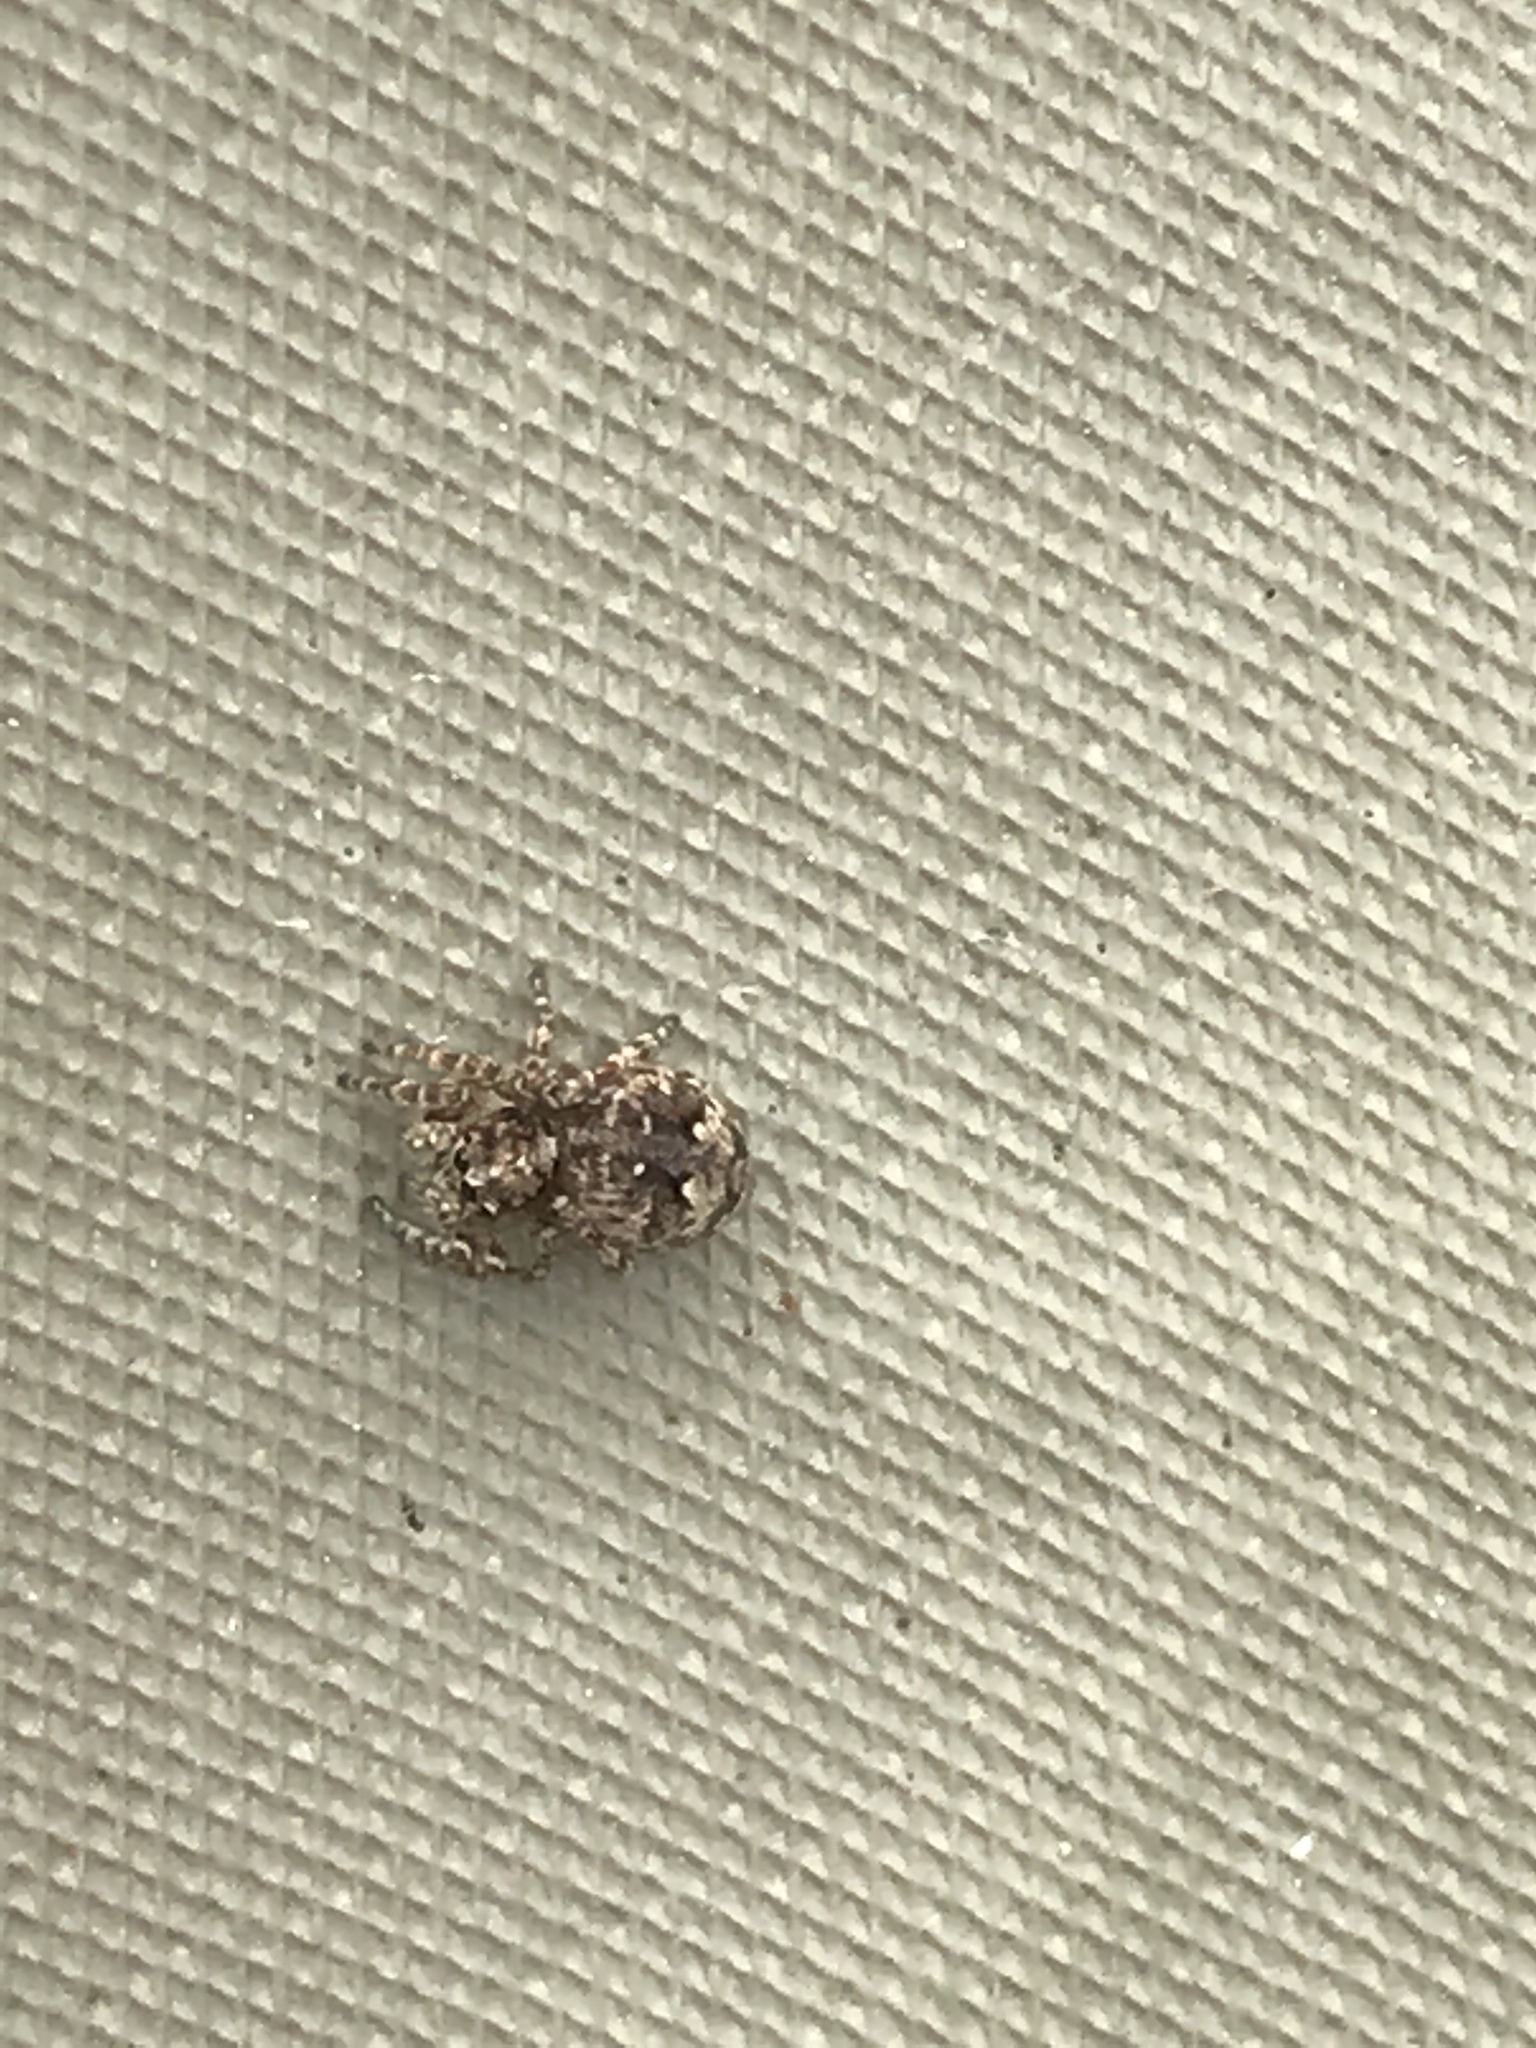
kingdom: Animalia
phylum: Arthropoda
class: Arachnida
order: Araneae
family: Salticidae
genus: Attulus
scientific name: Attulus fasciger
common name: Asiatic wall jumping spider
